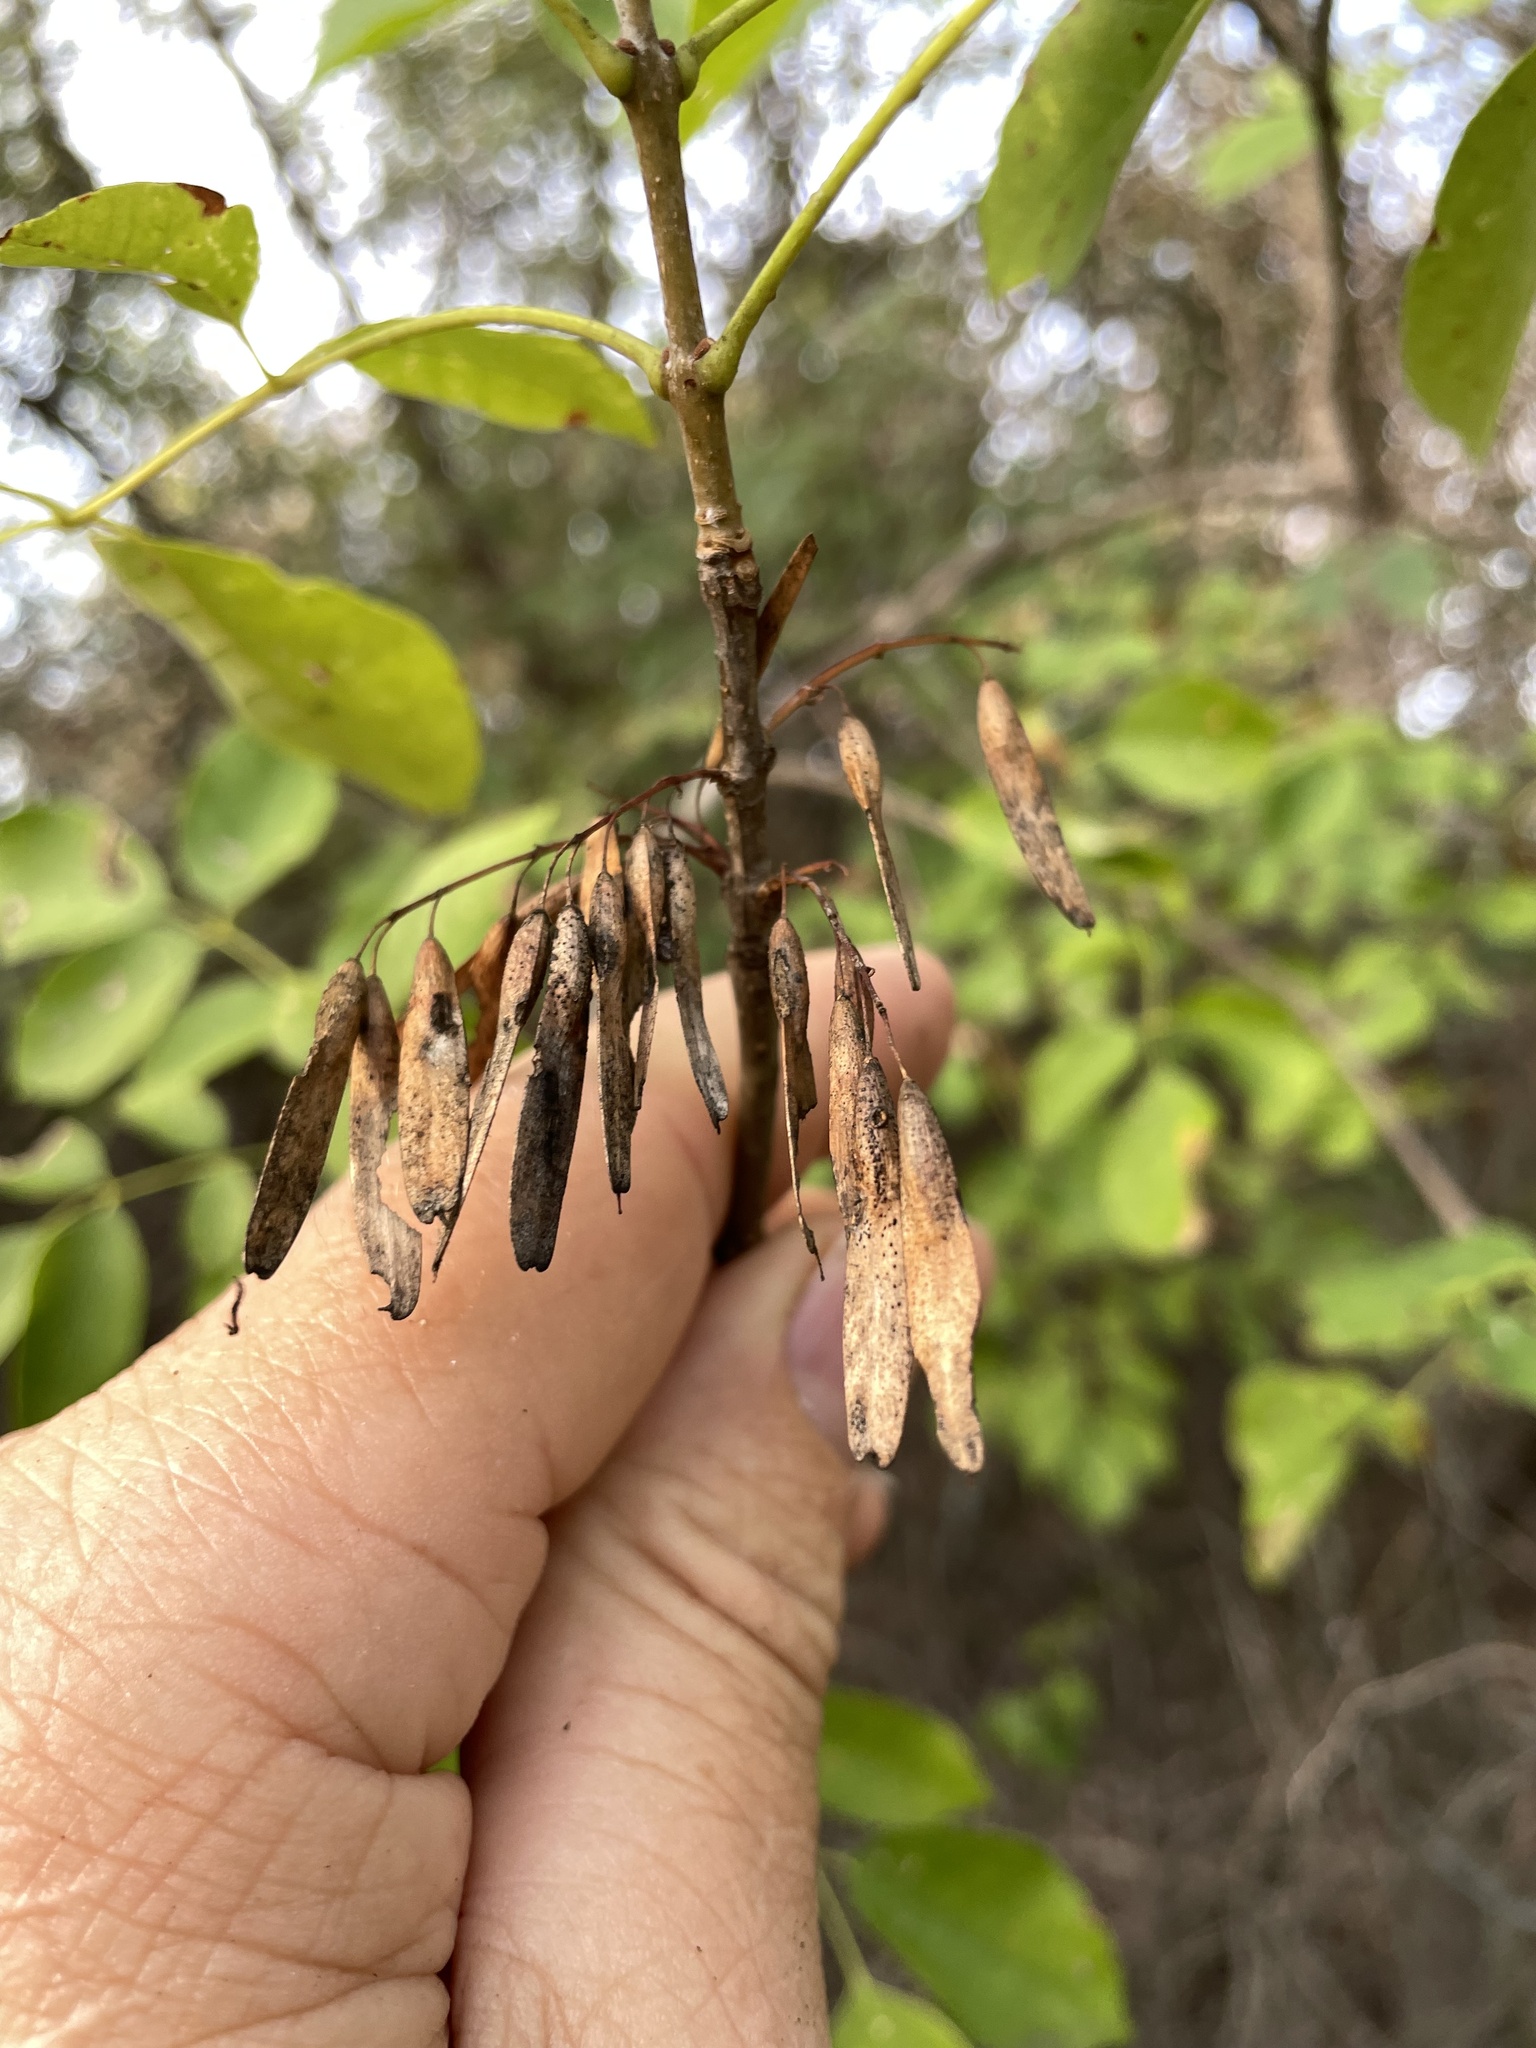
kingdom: Plantae
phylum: Tracheophyta
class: Magnoliopsida
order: Lamiales
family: Oleaceae
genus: Fraxinus
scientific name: Fraxinus albicans
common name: Texas ash
